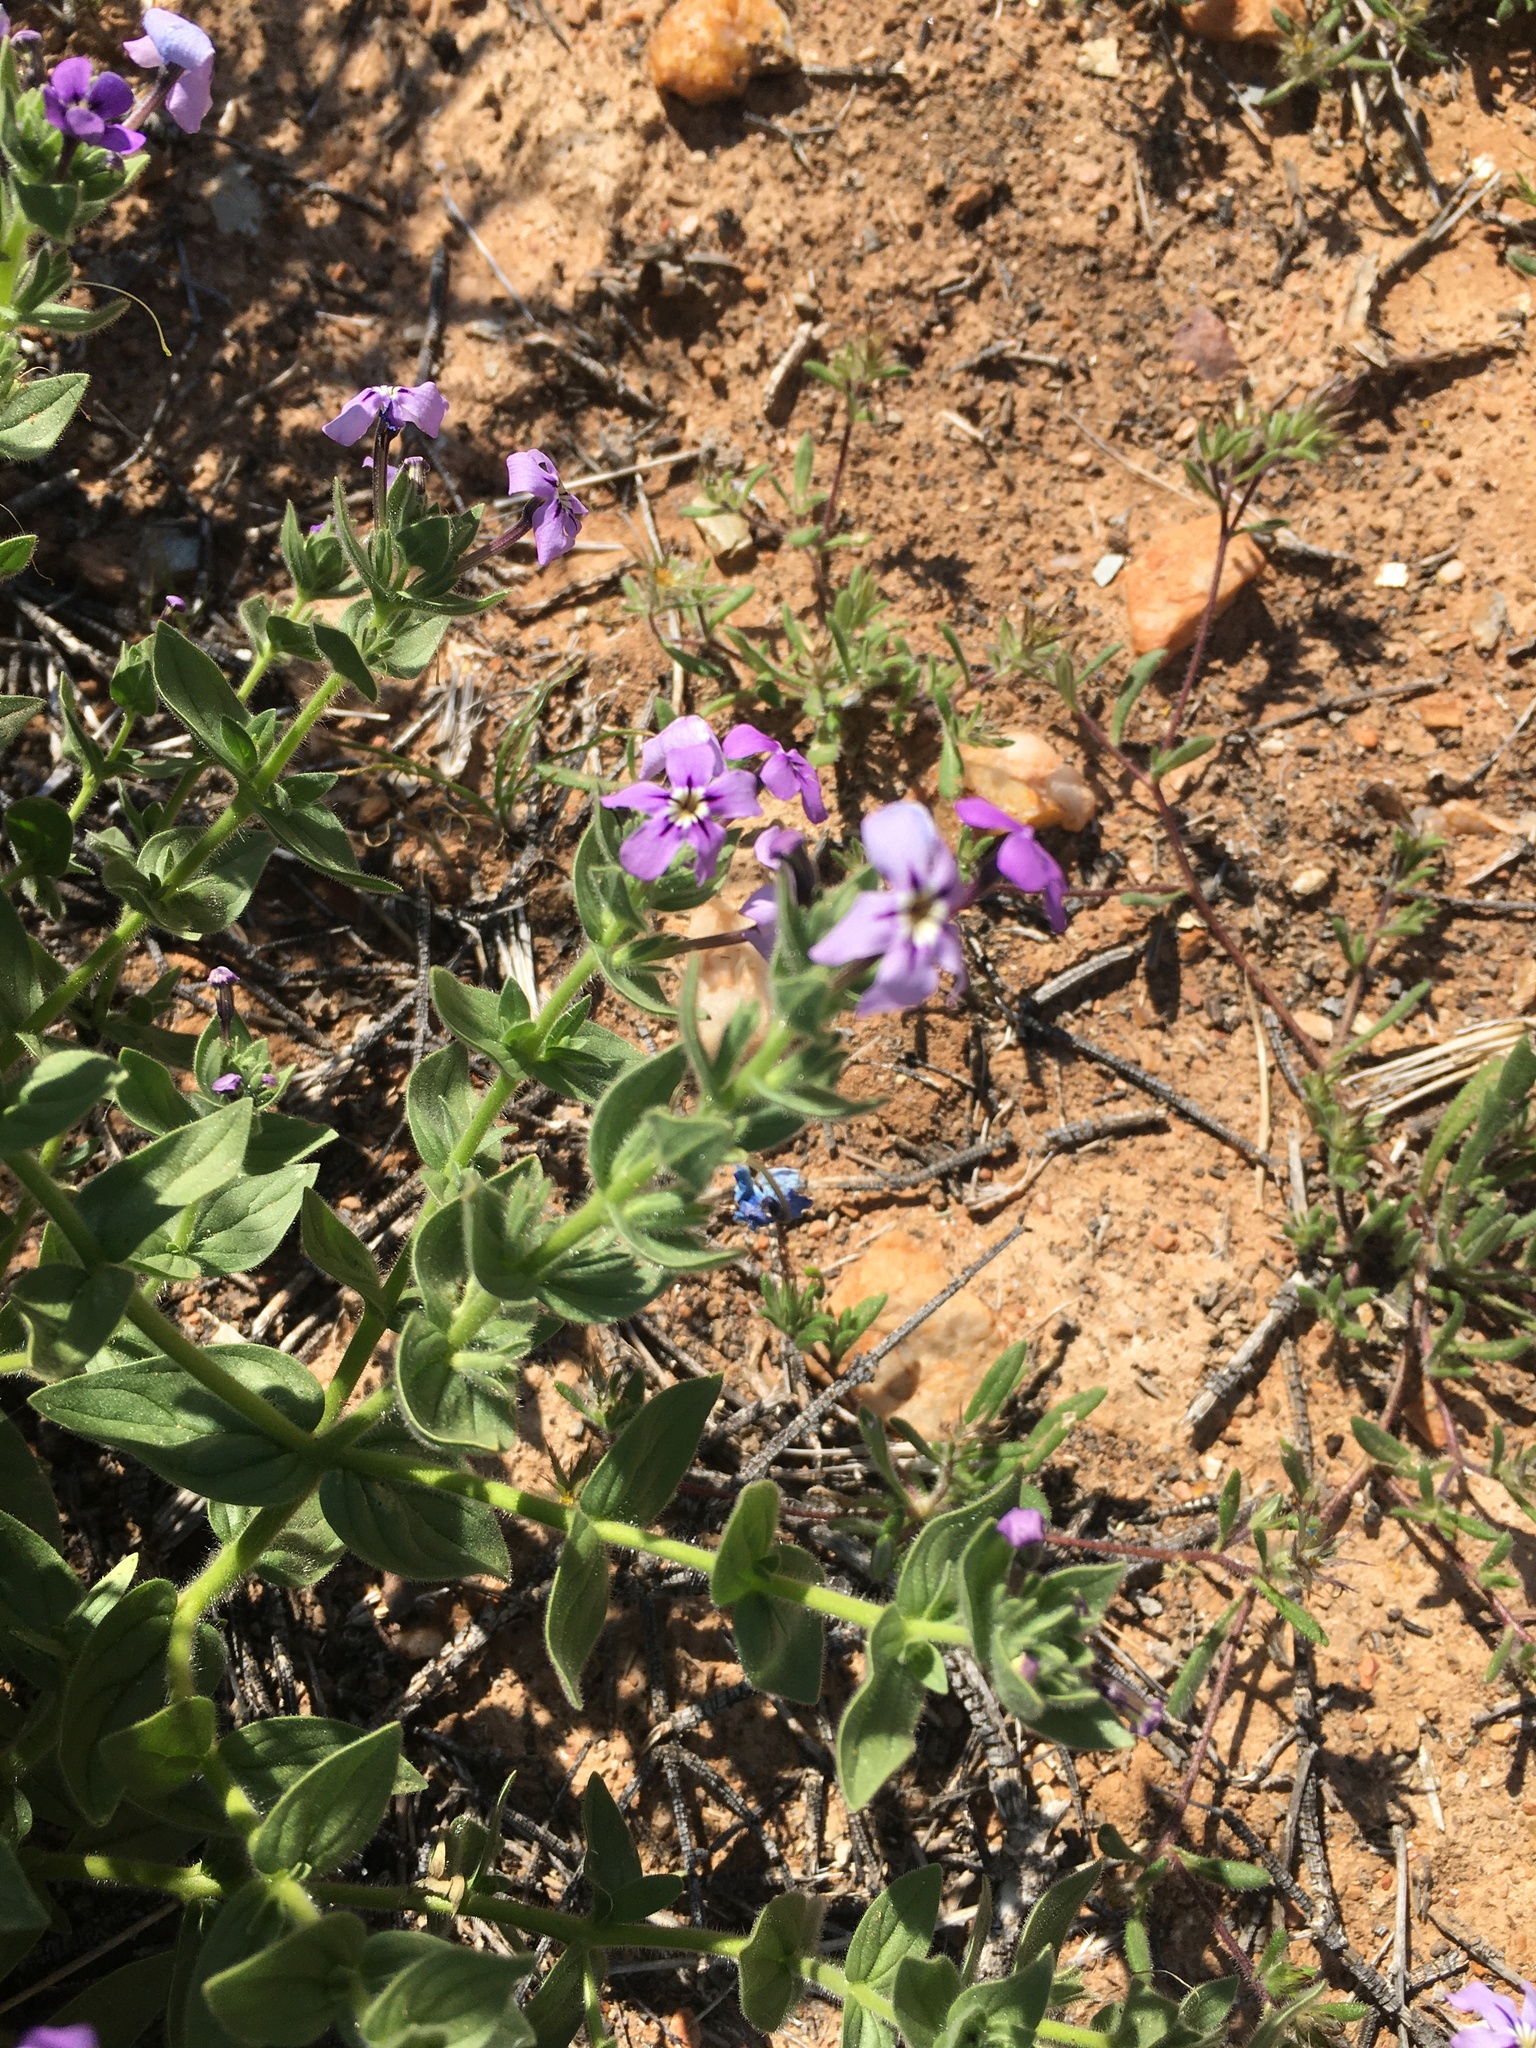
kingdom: Plantae
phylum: Tracheophyta
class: Magnoliopsida
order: Lamiales
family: Scrophulariaceae
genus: Jamesbrittenia
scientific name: Jamesbrittenia fruticosa
